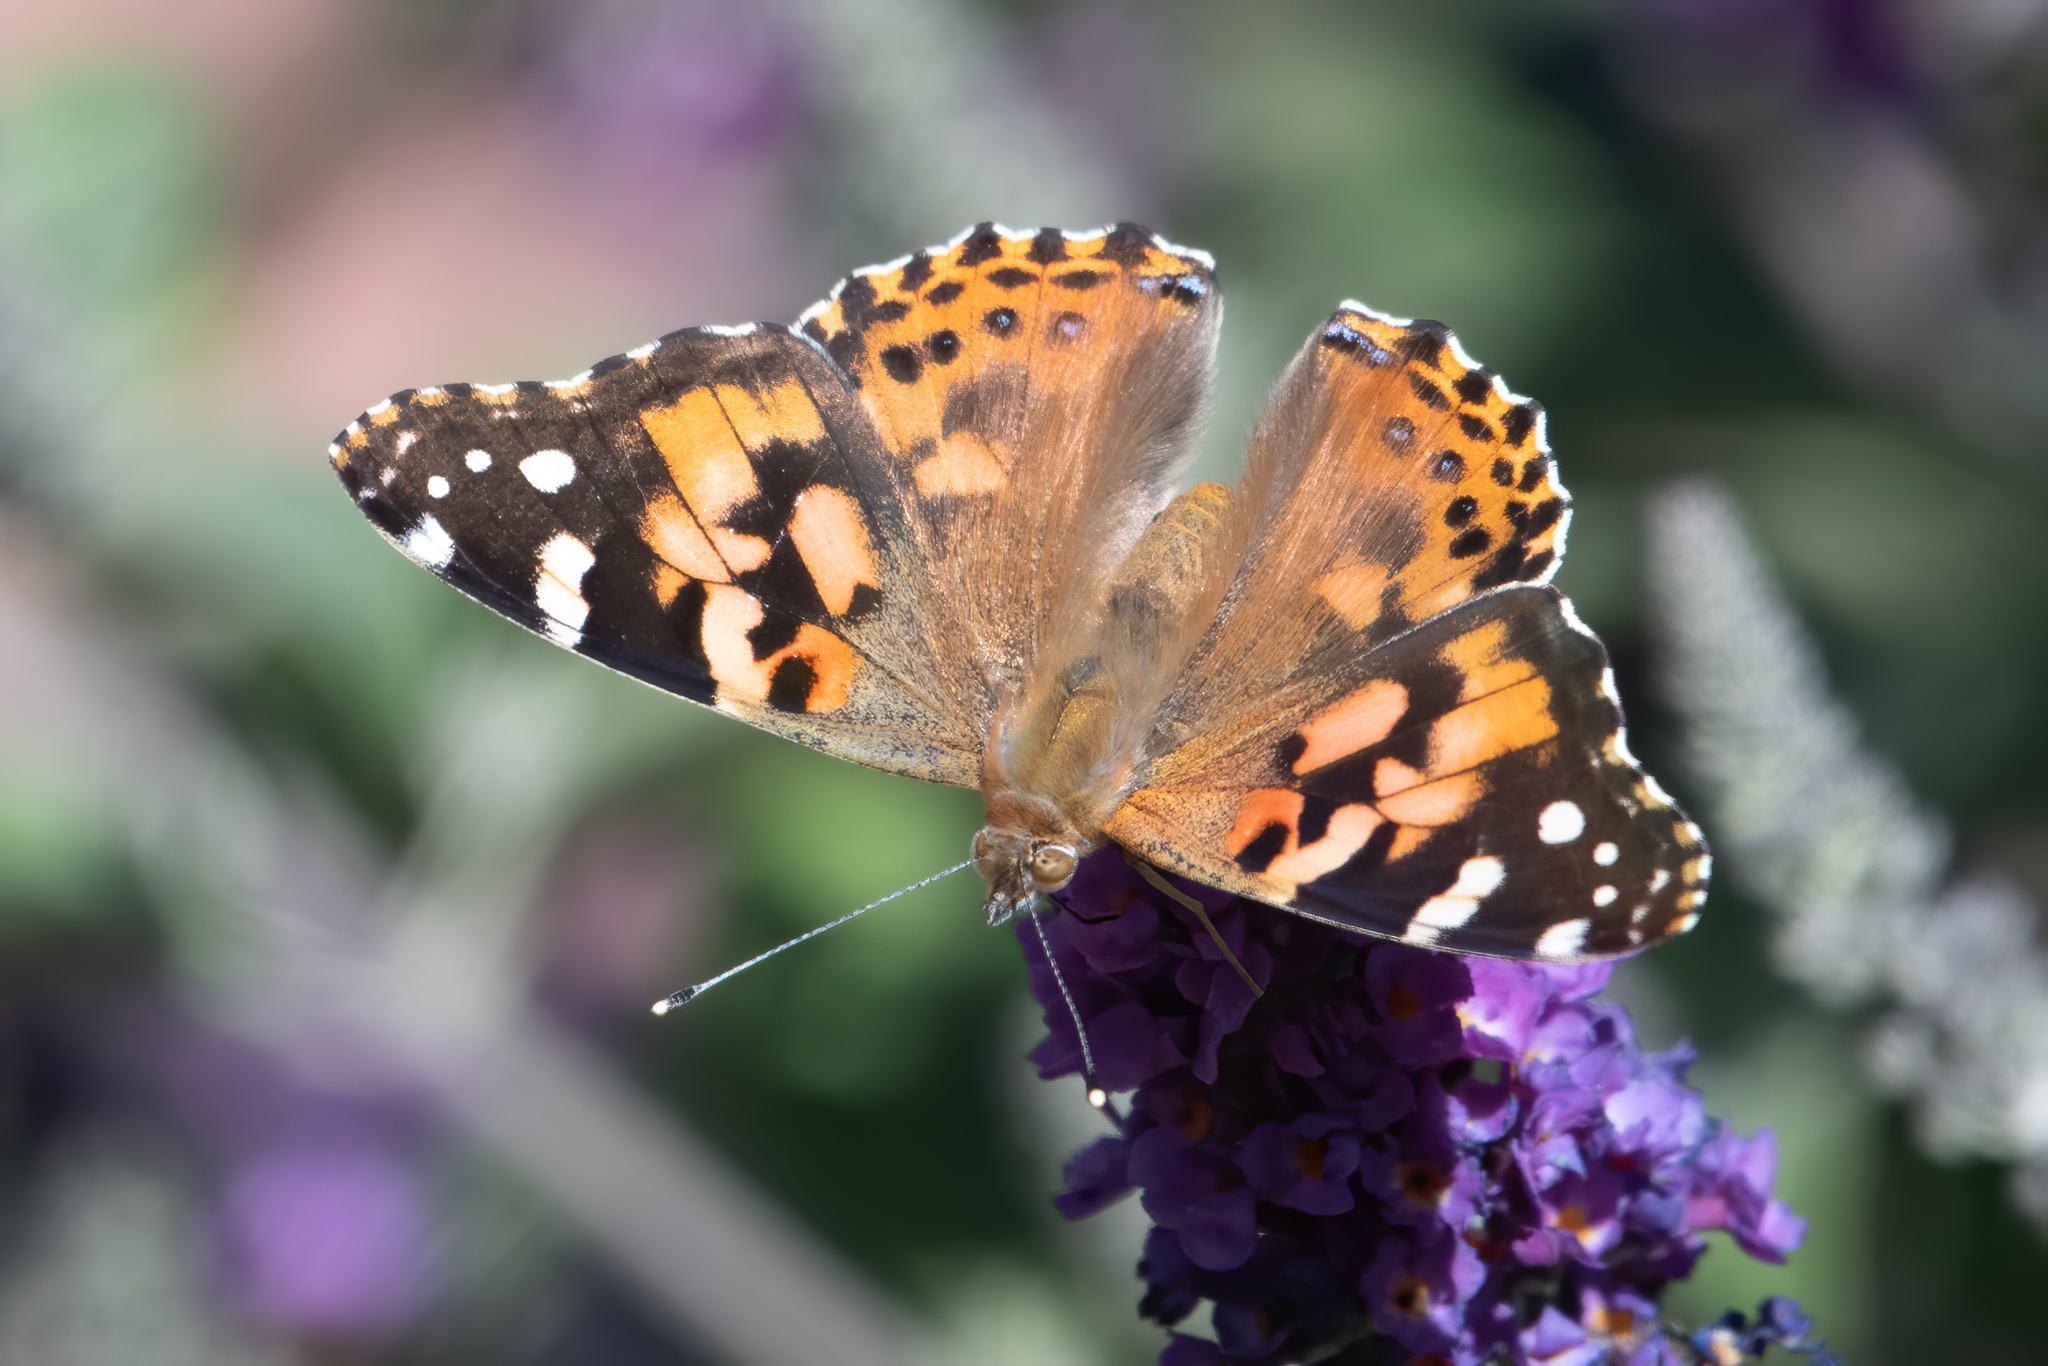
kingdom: Animalia
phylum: Arthropoda
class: Insecta
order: Lepidoptera
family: Nymphalidae
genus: Vanessa
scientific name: Vanessa cardui
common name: Painted lady
